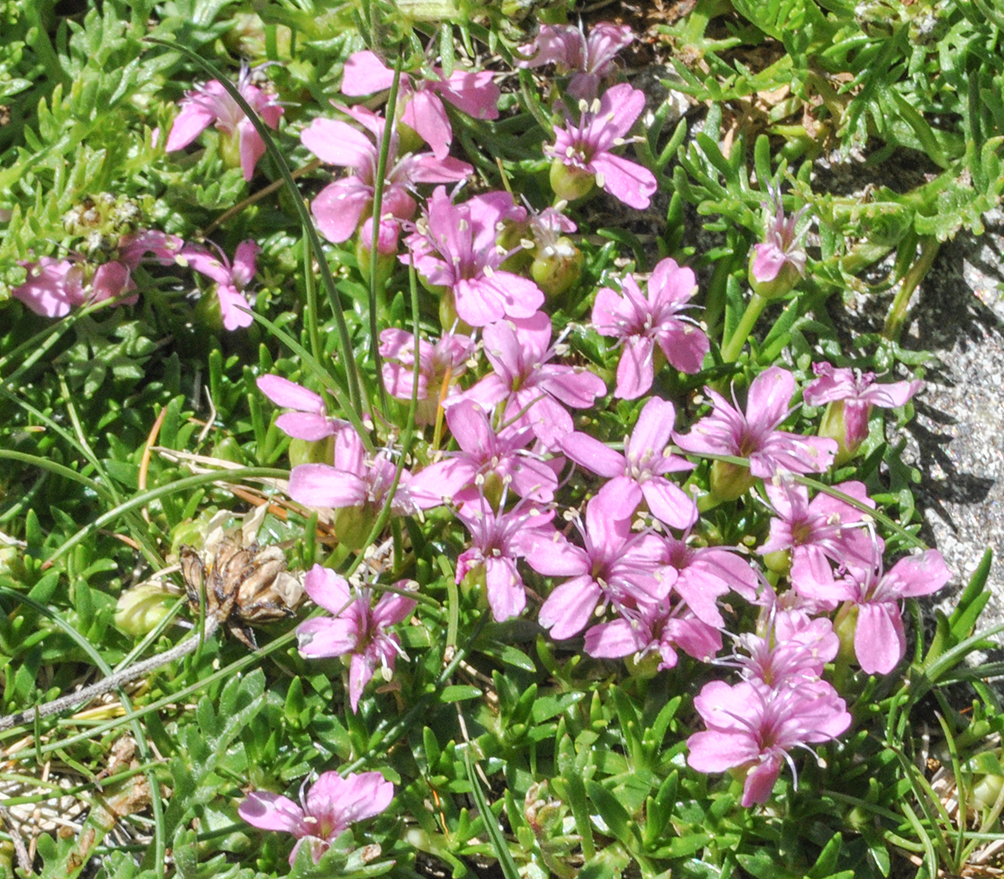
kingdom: Plantae
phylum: Tracheophyta
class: Magnoliopsida
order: Caryophyllales
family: Caryophyllaceae
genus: Silene
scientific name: Silene acaulis
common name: Moss campion
